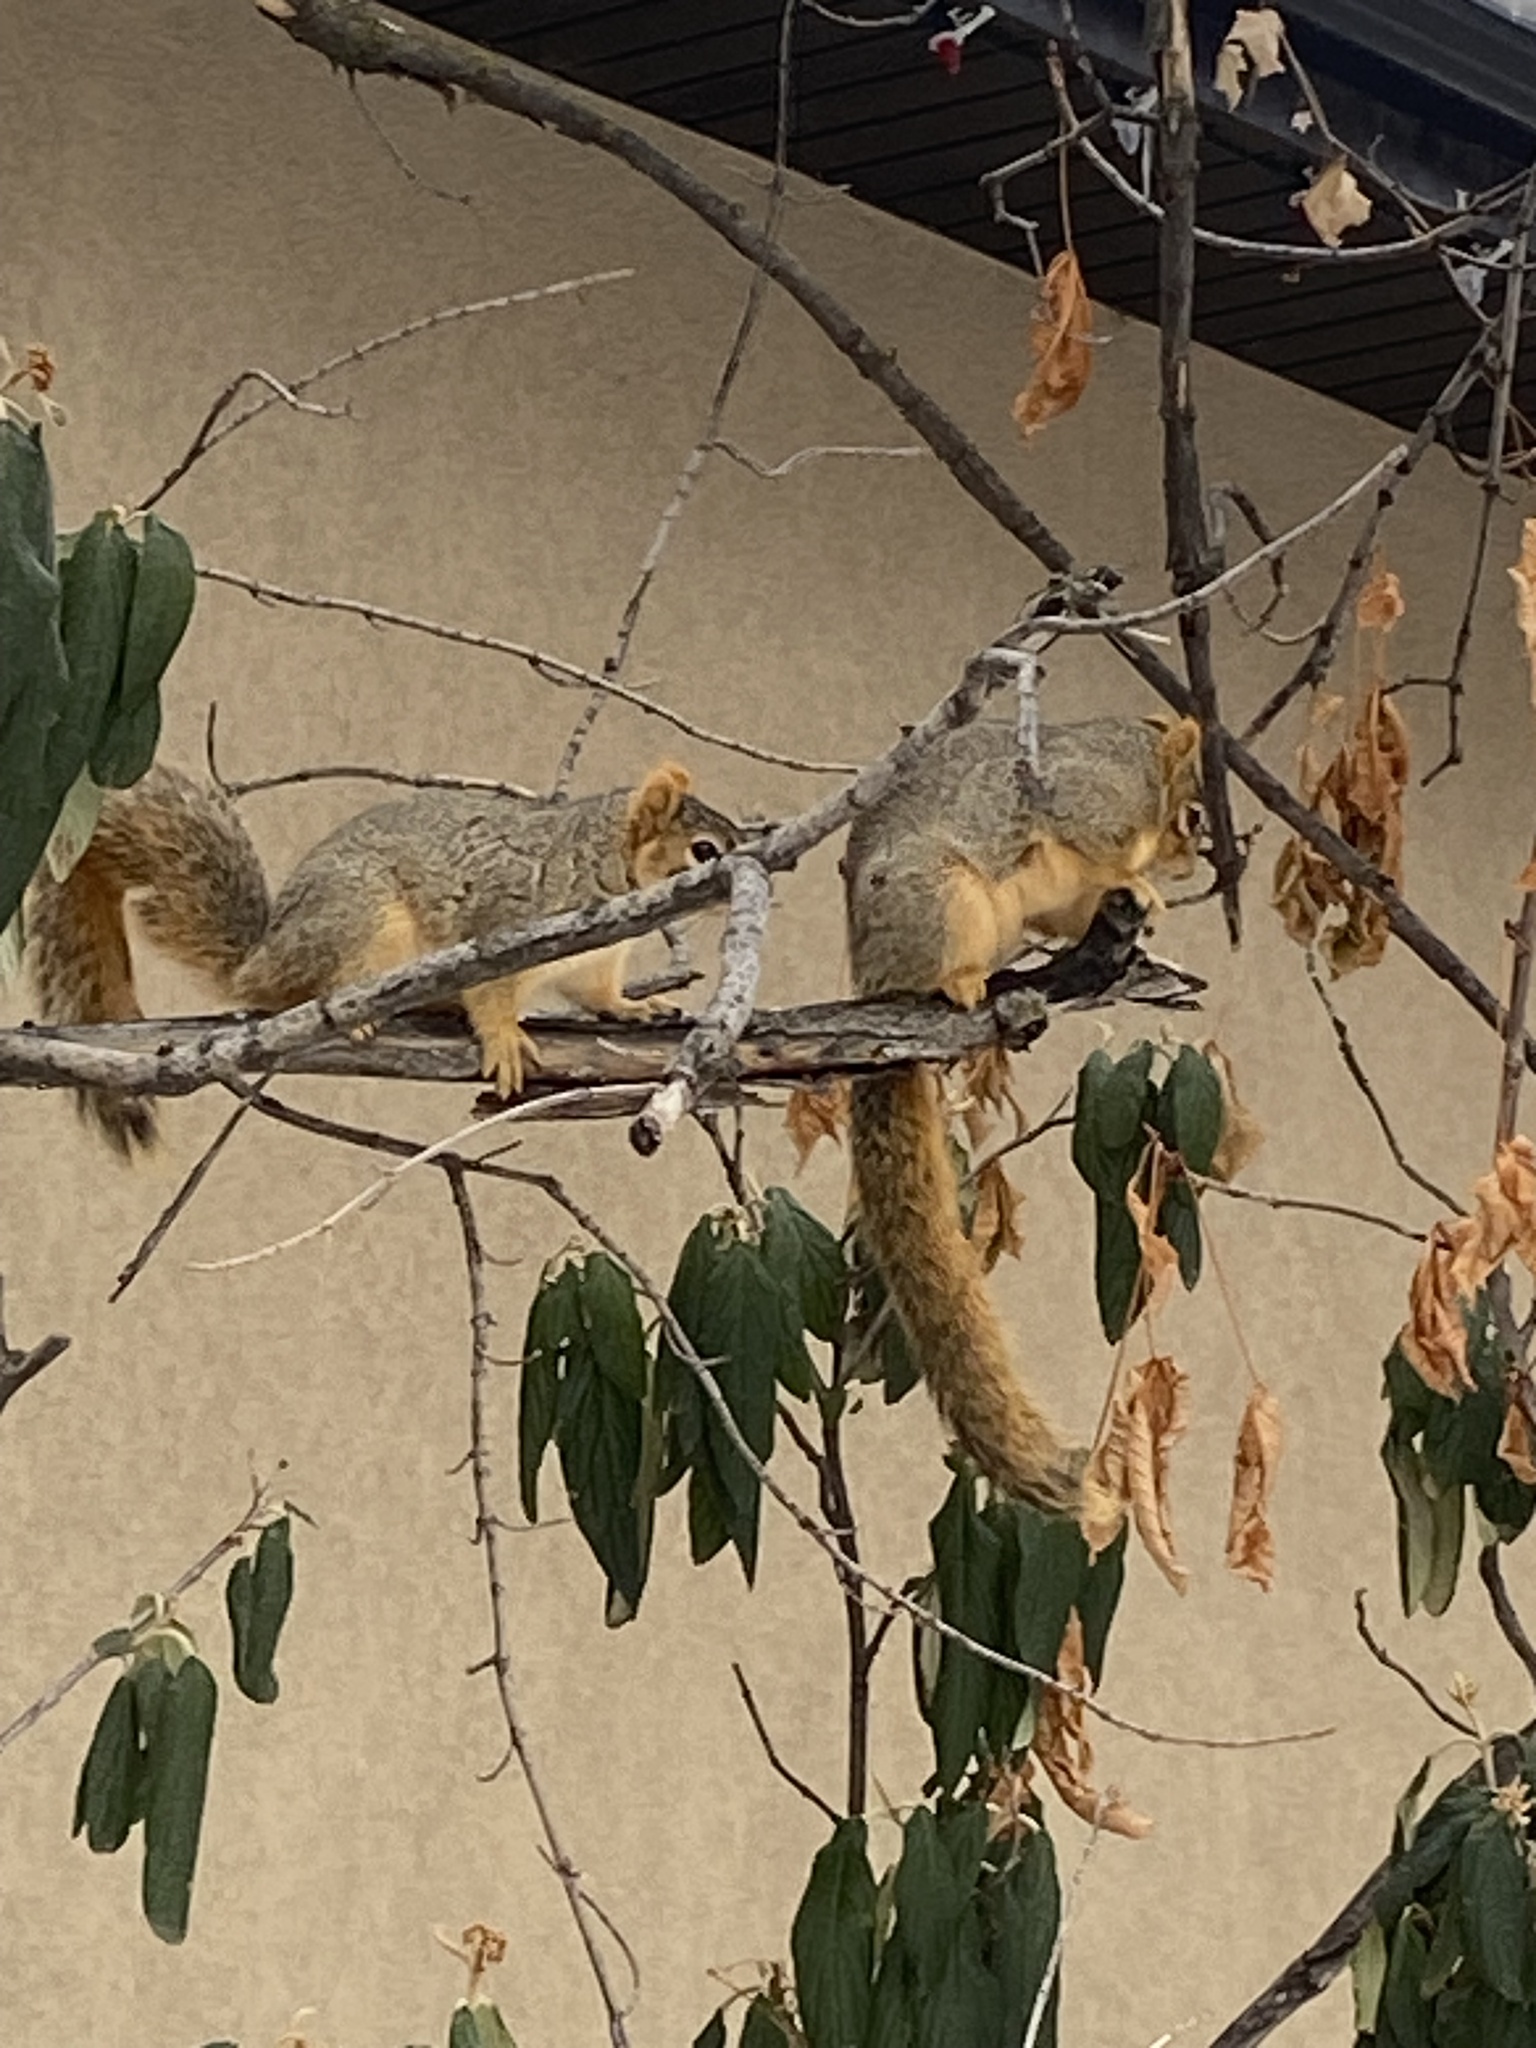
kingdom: Animalia
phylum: Chordata
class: Mammalia
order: Rodentia
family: Sciuridae
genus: Sciurus
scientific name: Sciurus niger
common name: Fox squirrel
